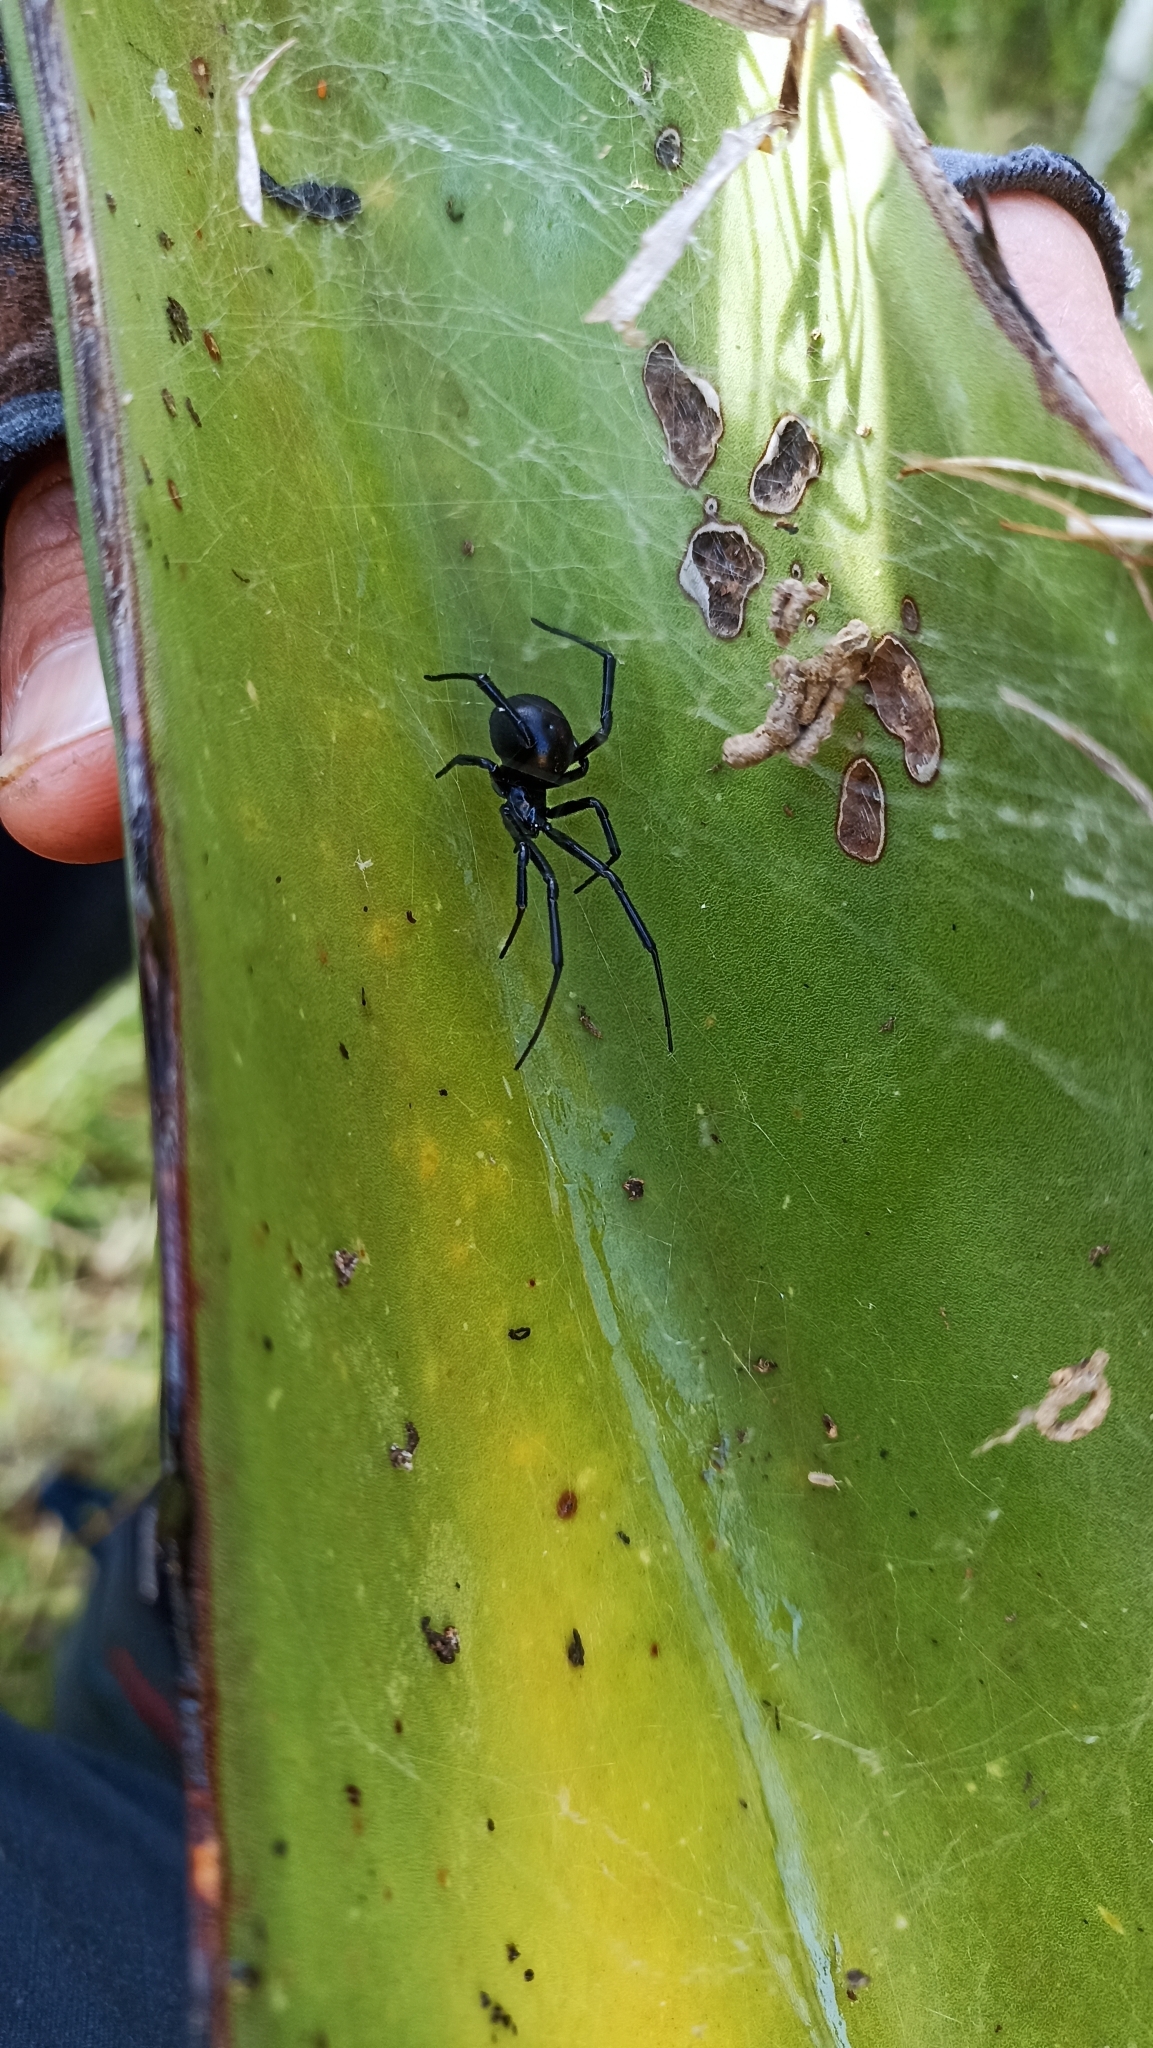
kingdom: Animalia
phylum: Arthropoda
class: Arachnida
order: Araneae
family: Theridiidae
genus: Latrodectus
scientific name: Latrodectus mactans
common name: Cobweb spiders
